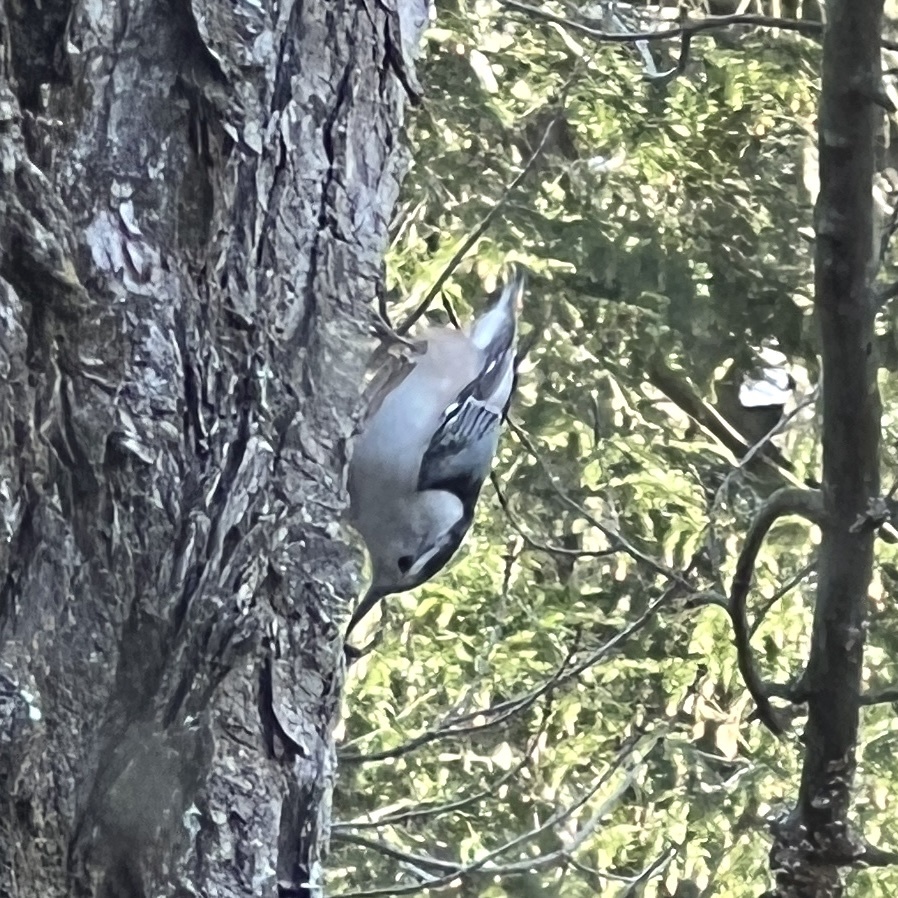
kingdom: Animalia
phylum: Chordata
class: Aves
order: Passeriformes
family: Sittidae
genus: Sitta
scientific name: Sitta carolinensis
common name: White-breasted nuthatch
